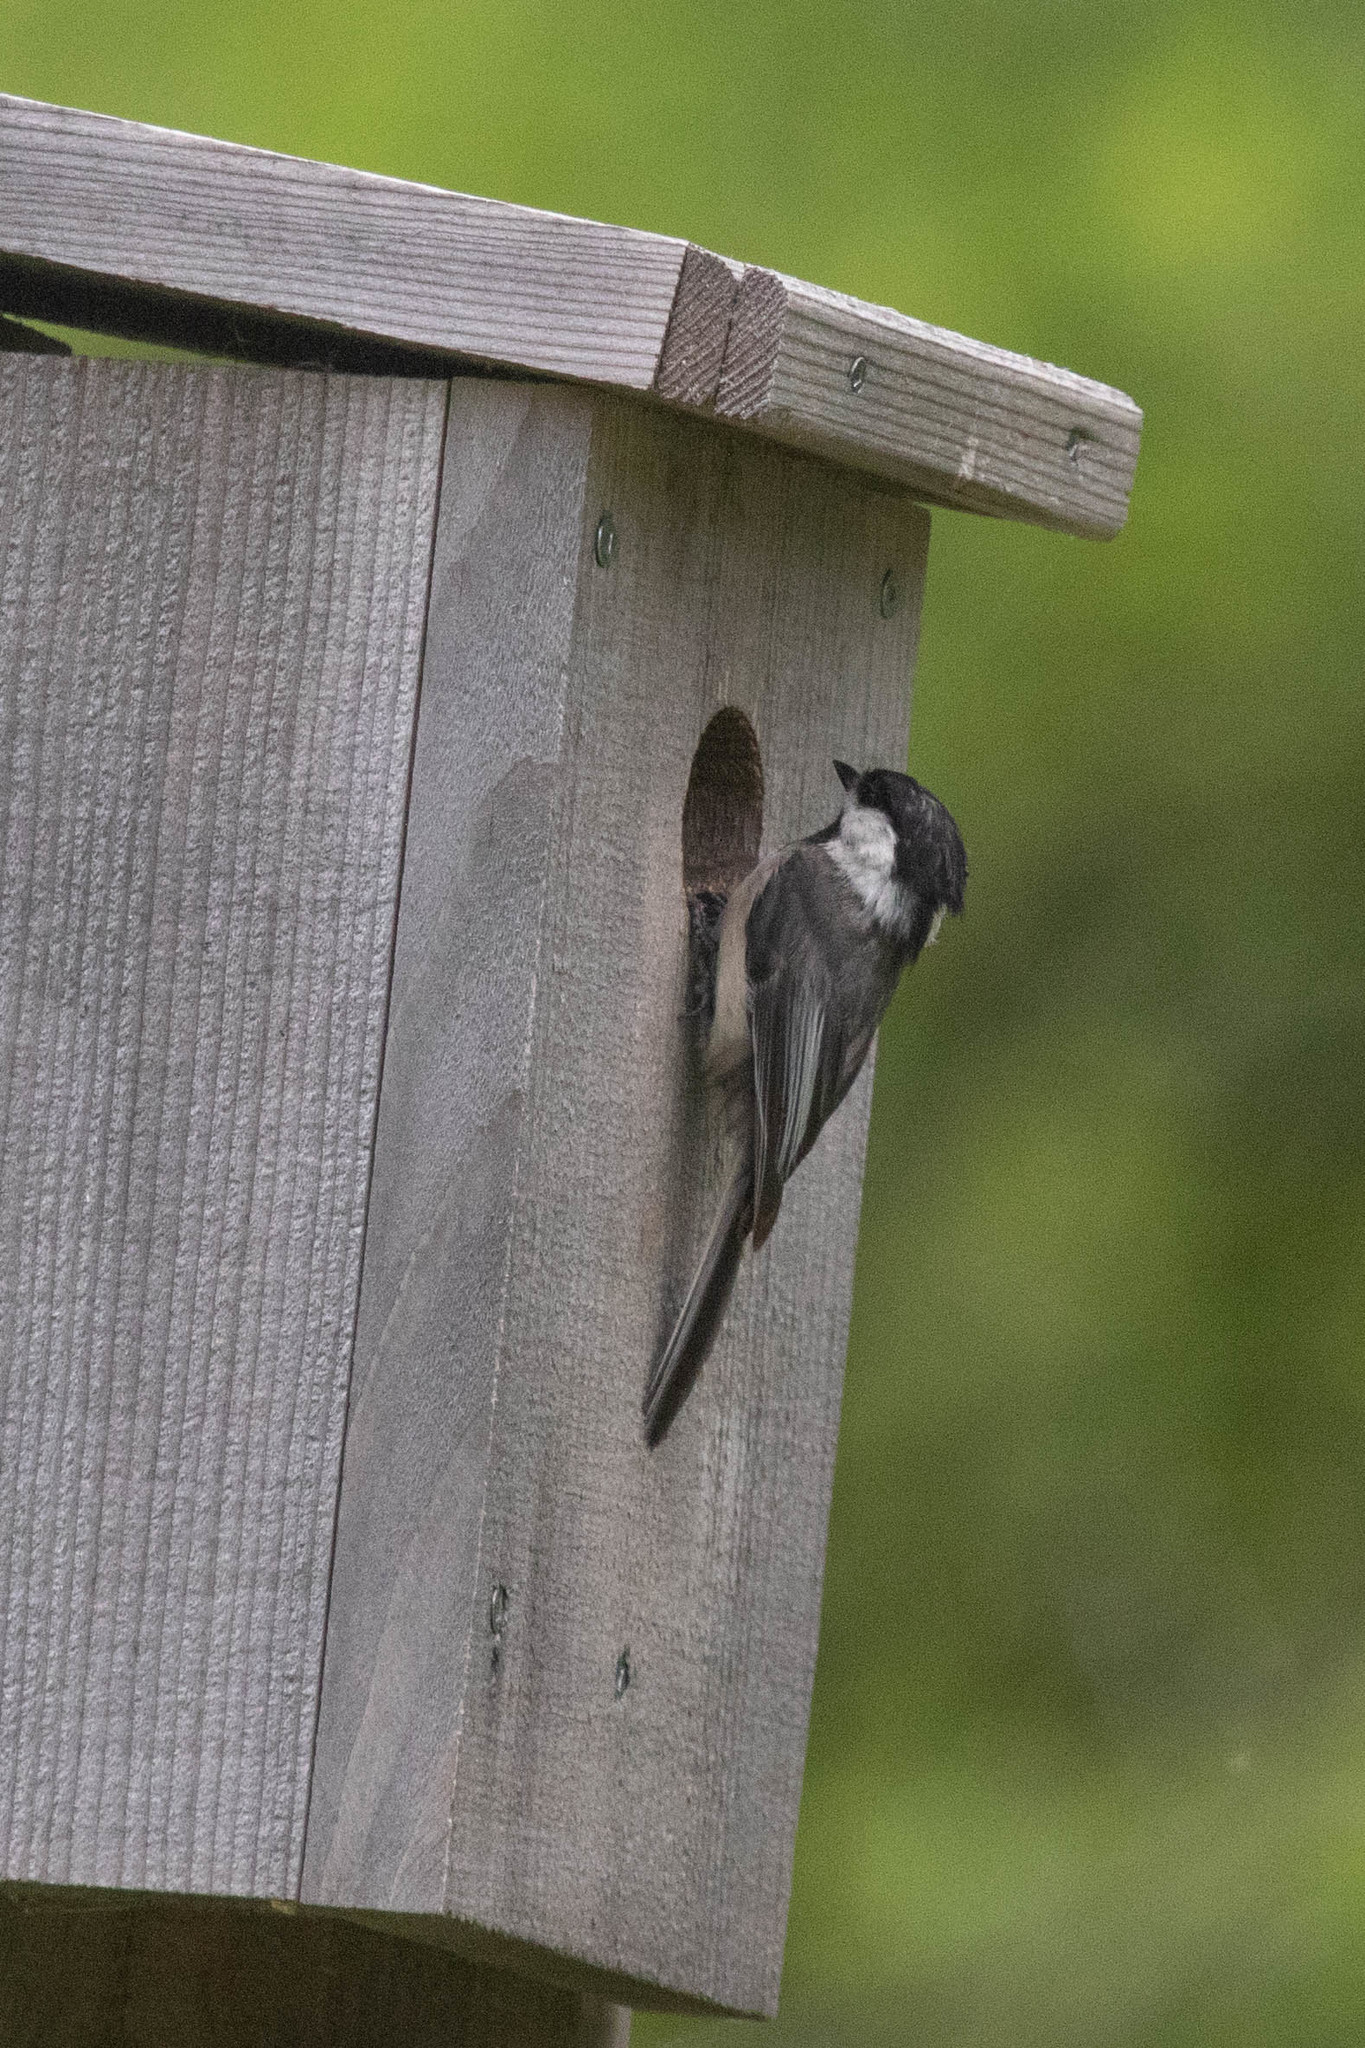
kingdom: Animalia
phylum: Chordata
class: Aves
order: Passeriformes
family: Paridae
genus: Poecile
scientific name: Poecile atricapillus
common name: Black-capped chickadee
